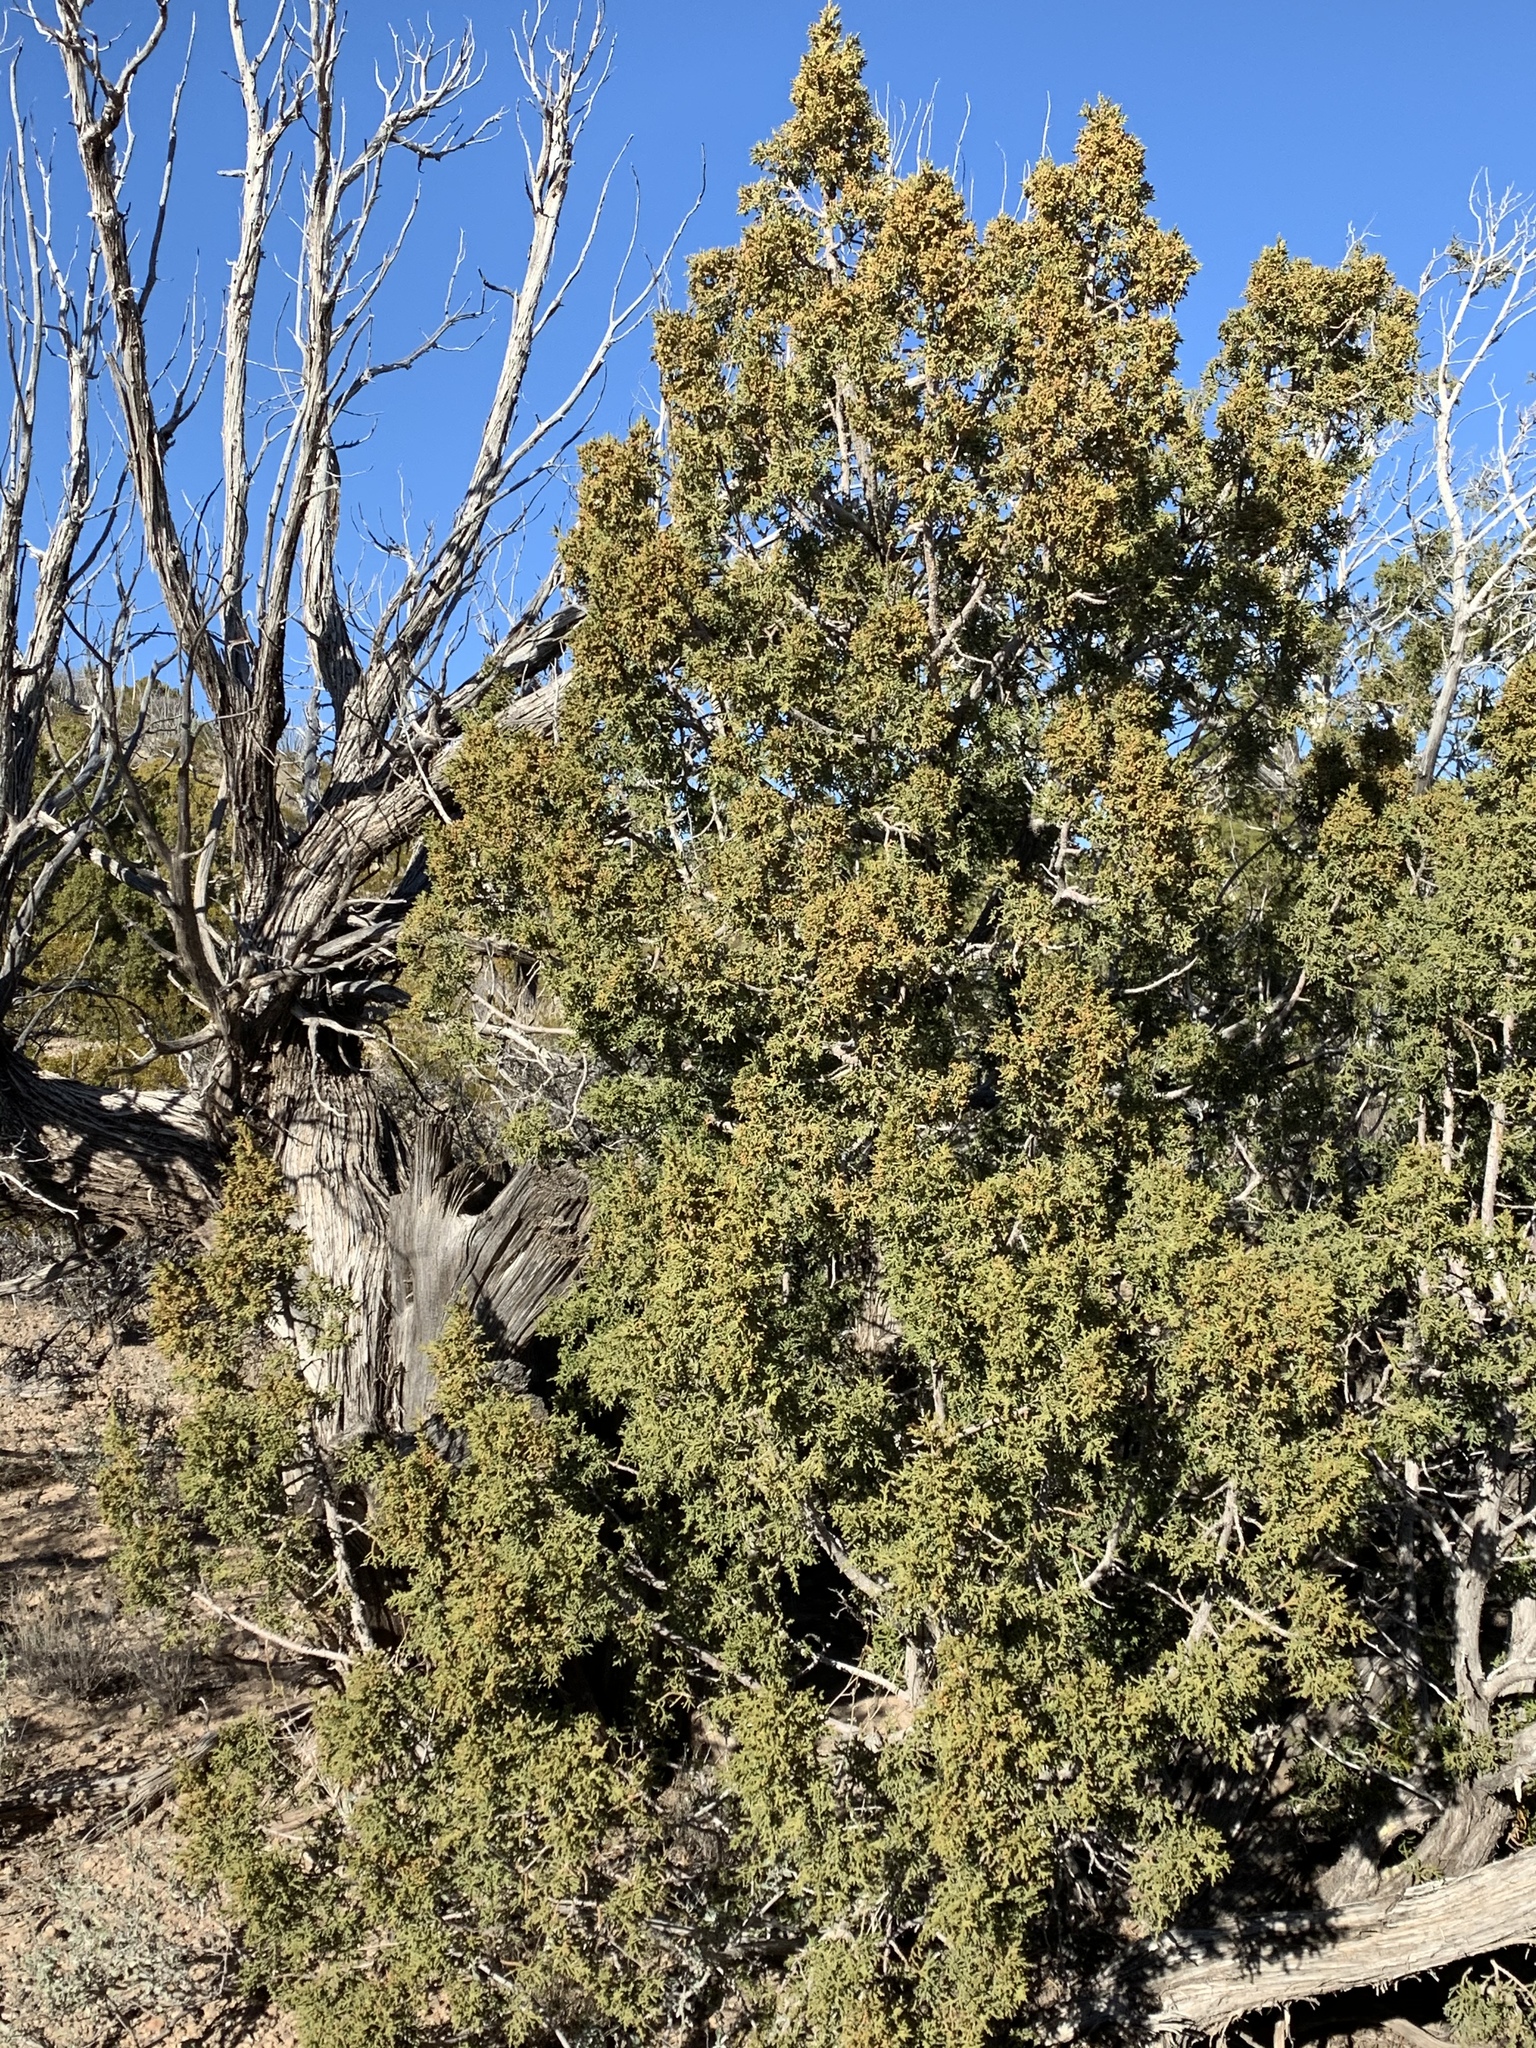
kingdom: Plantae
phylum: Tracheophyta
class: Pinopsida
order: Pinales
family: Cupressaceae
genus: Juniperus
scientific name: Juniperus monosperma
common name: One-seed juniper
